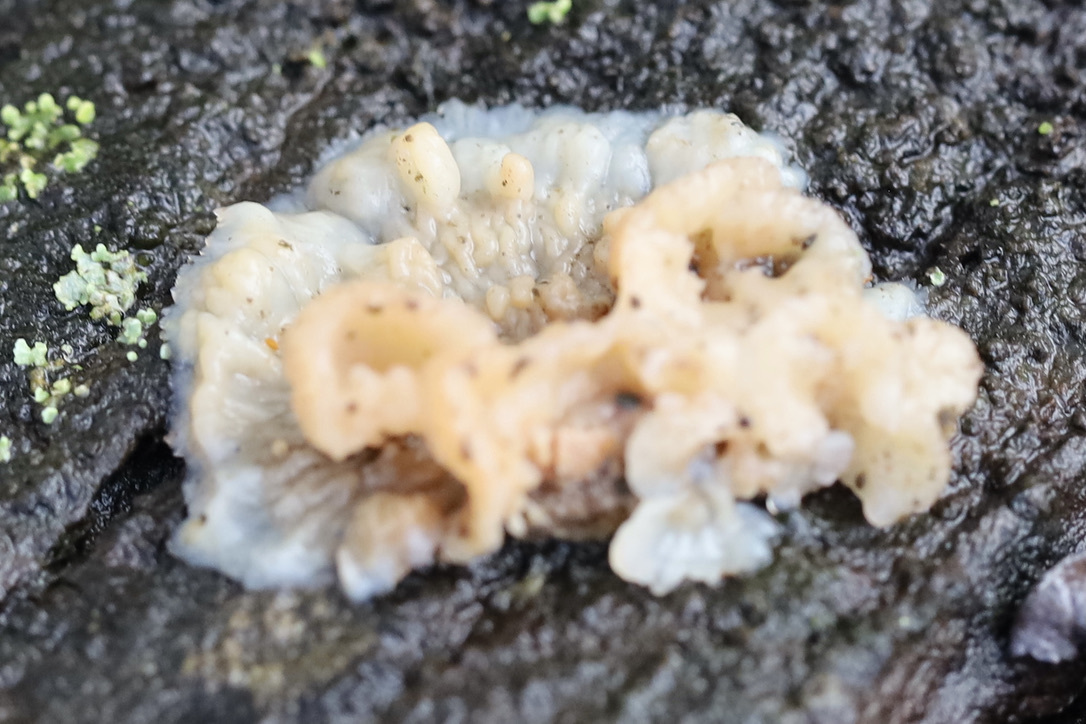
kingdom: Fungi
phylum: Basidiomycota
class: Agaricomycetes
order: Polyporales
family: Meruliaceae
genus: Phlebia
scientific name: Phlebia tremellosa
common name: Jelly rot
